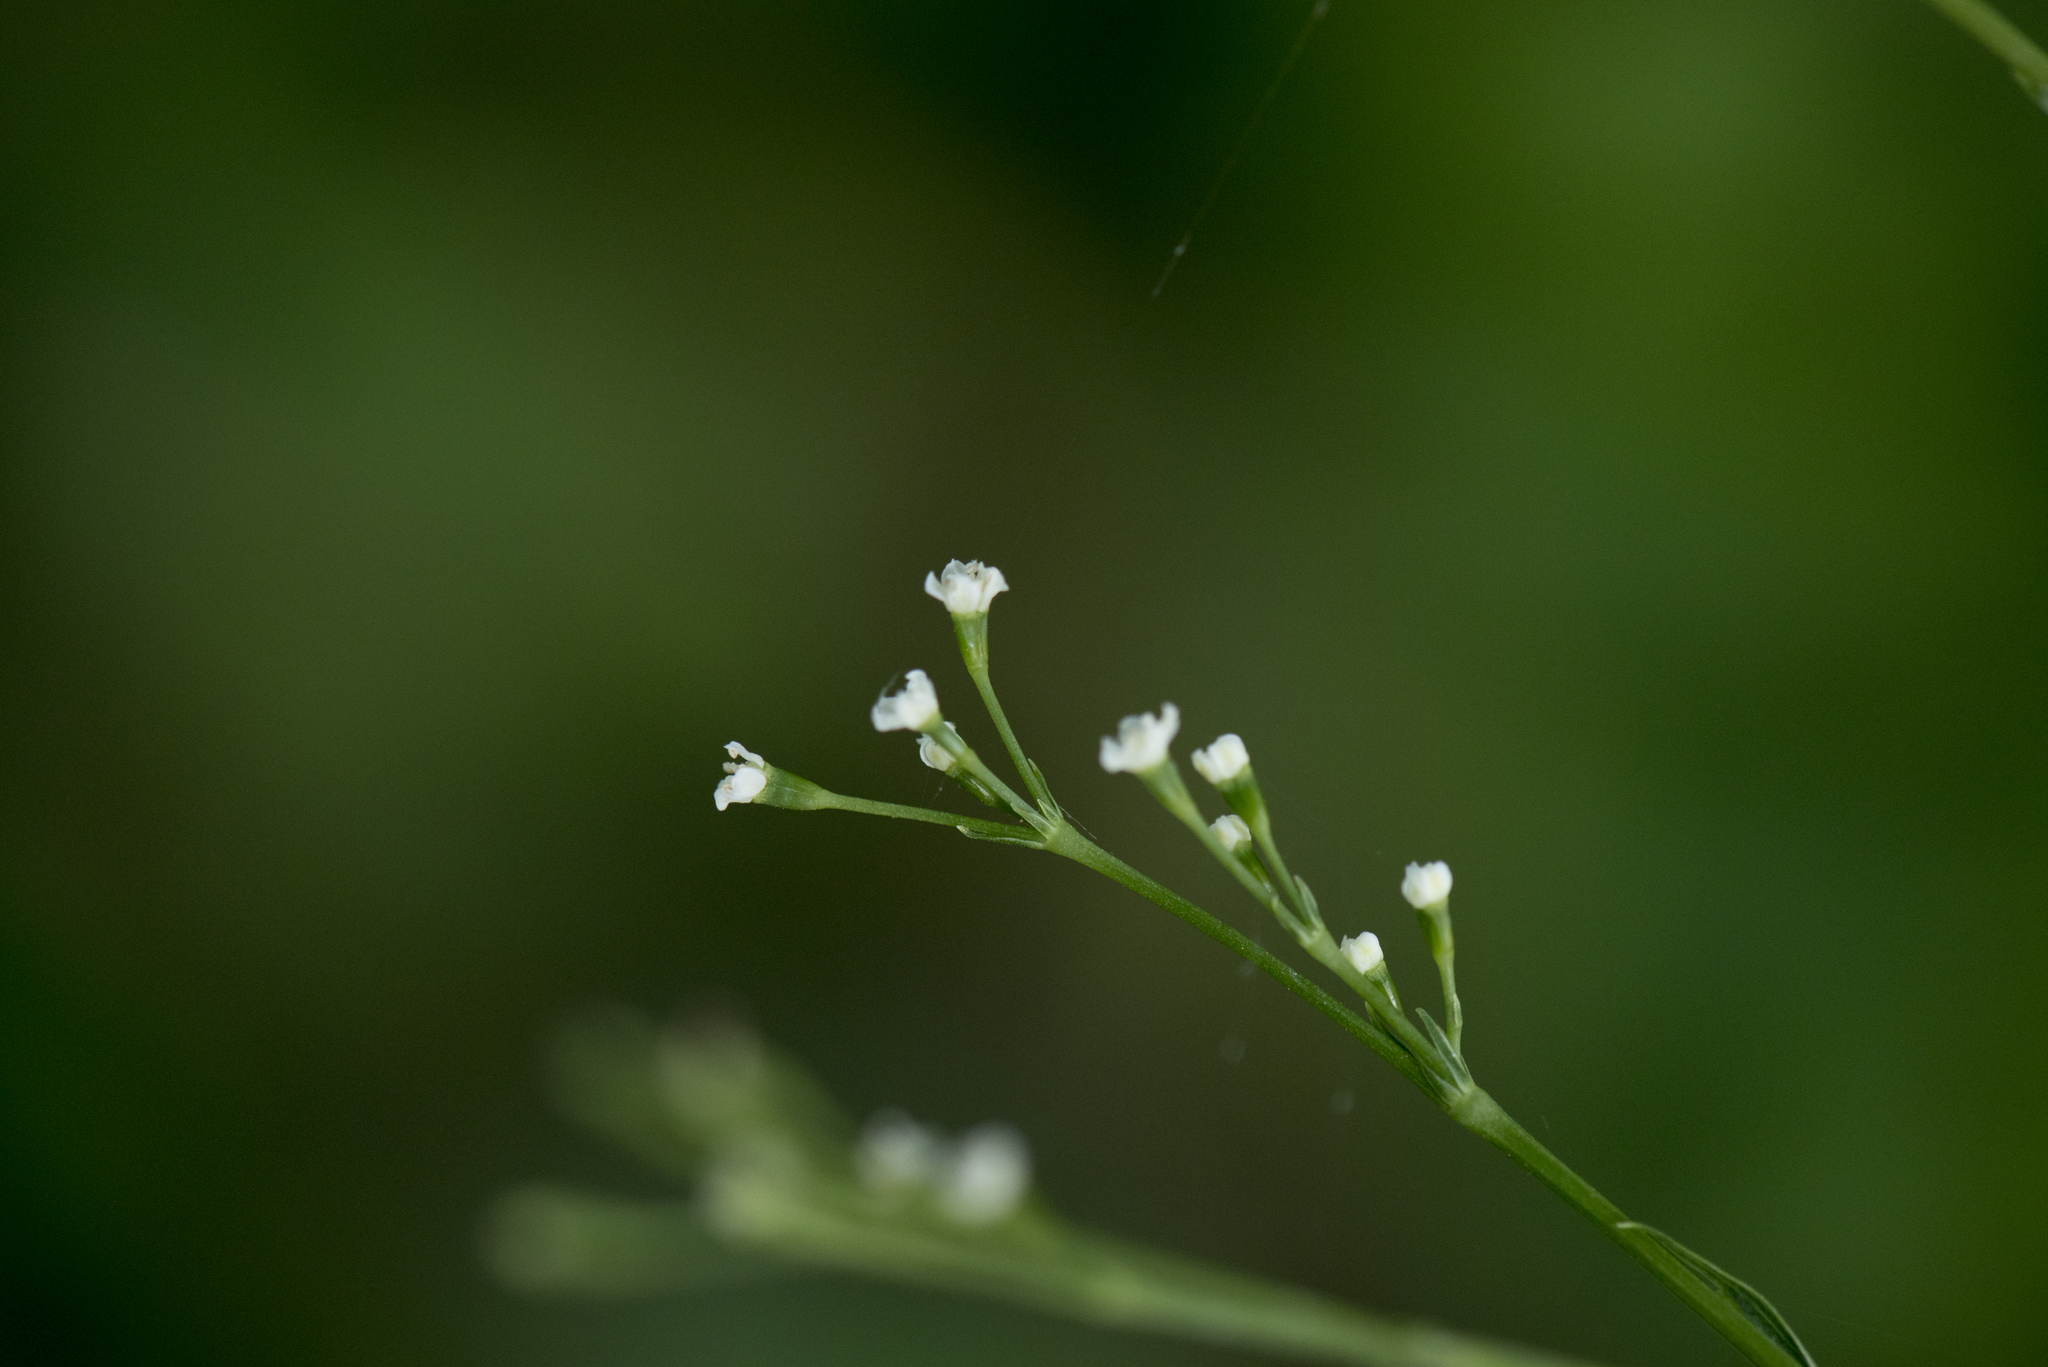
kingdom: Plantae
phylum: Tracheophyta
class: Magnoliopsida
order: Apiales
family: Apiaceae
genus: Cryptotaenia
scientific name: Cryptotaenia japonica
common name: Japanese cryptotaenia
